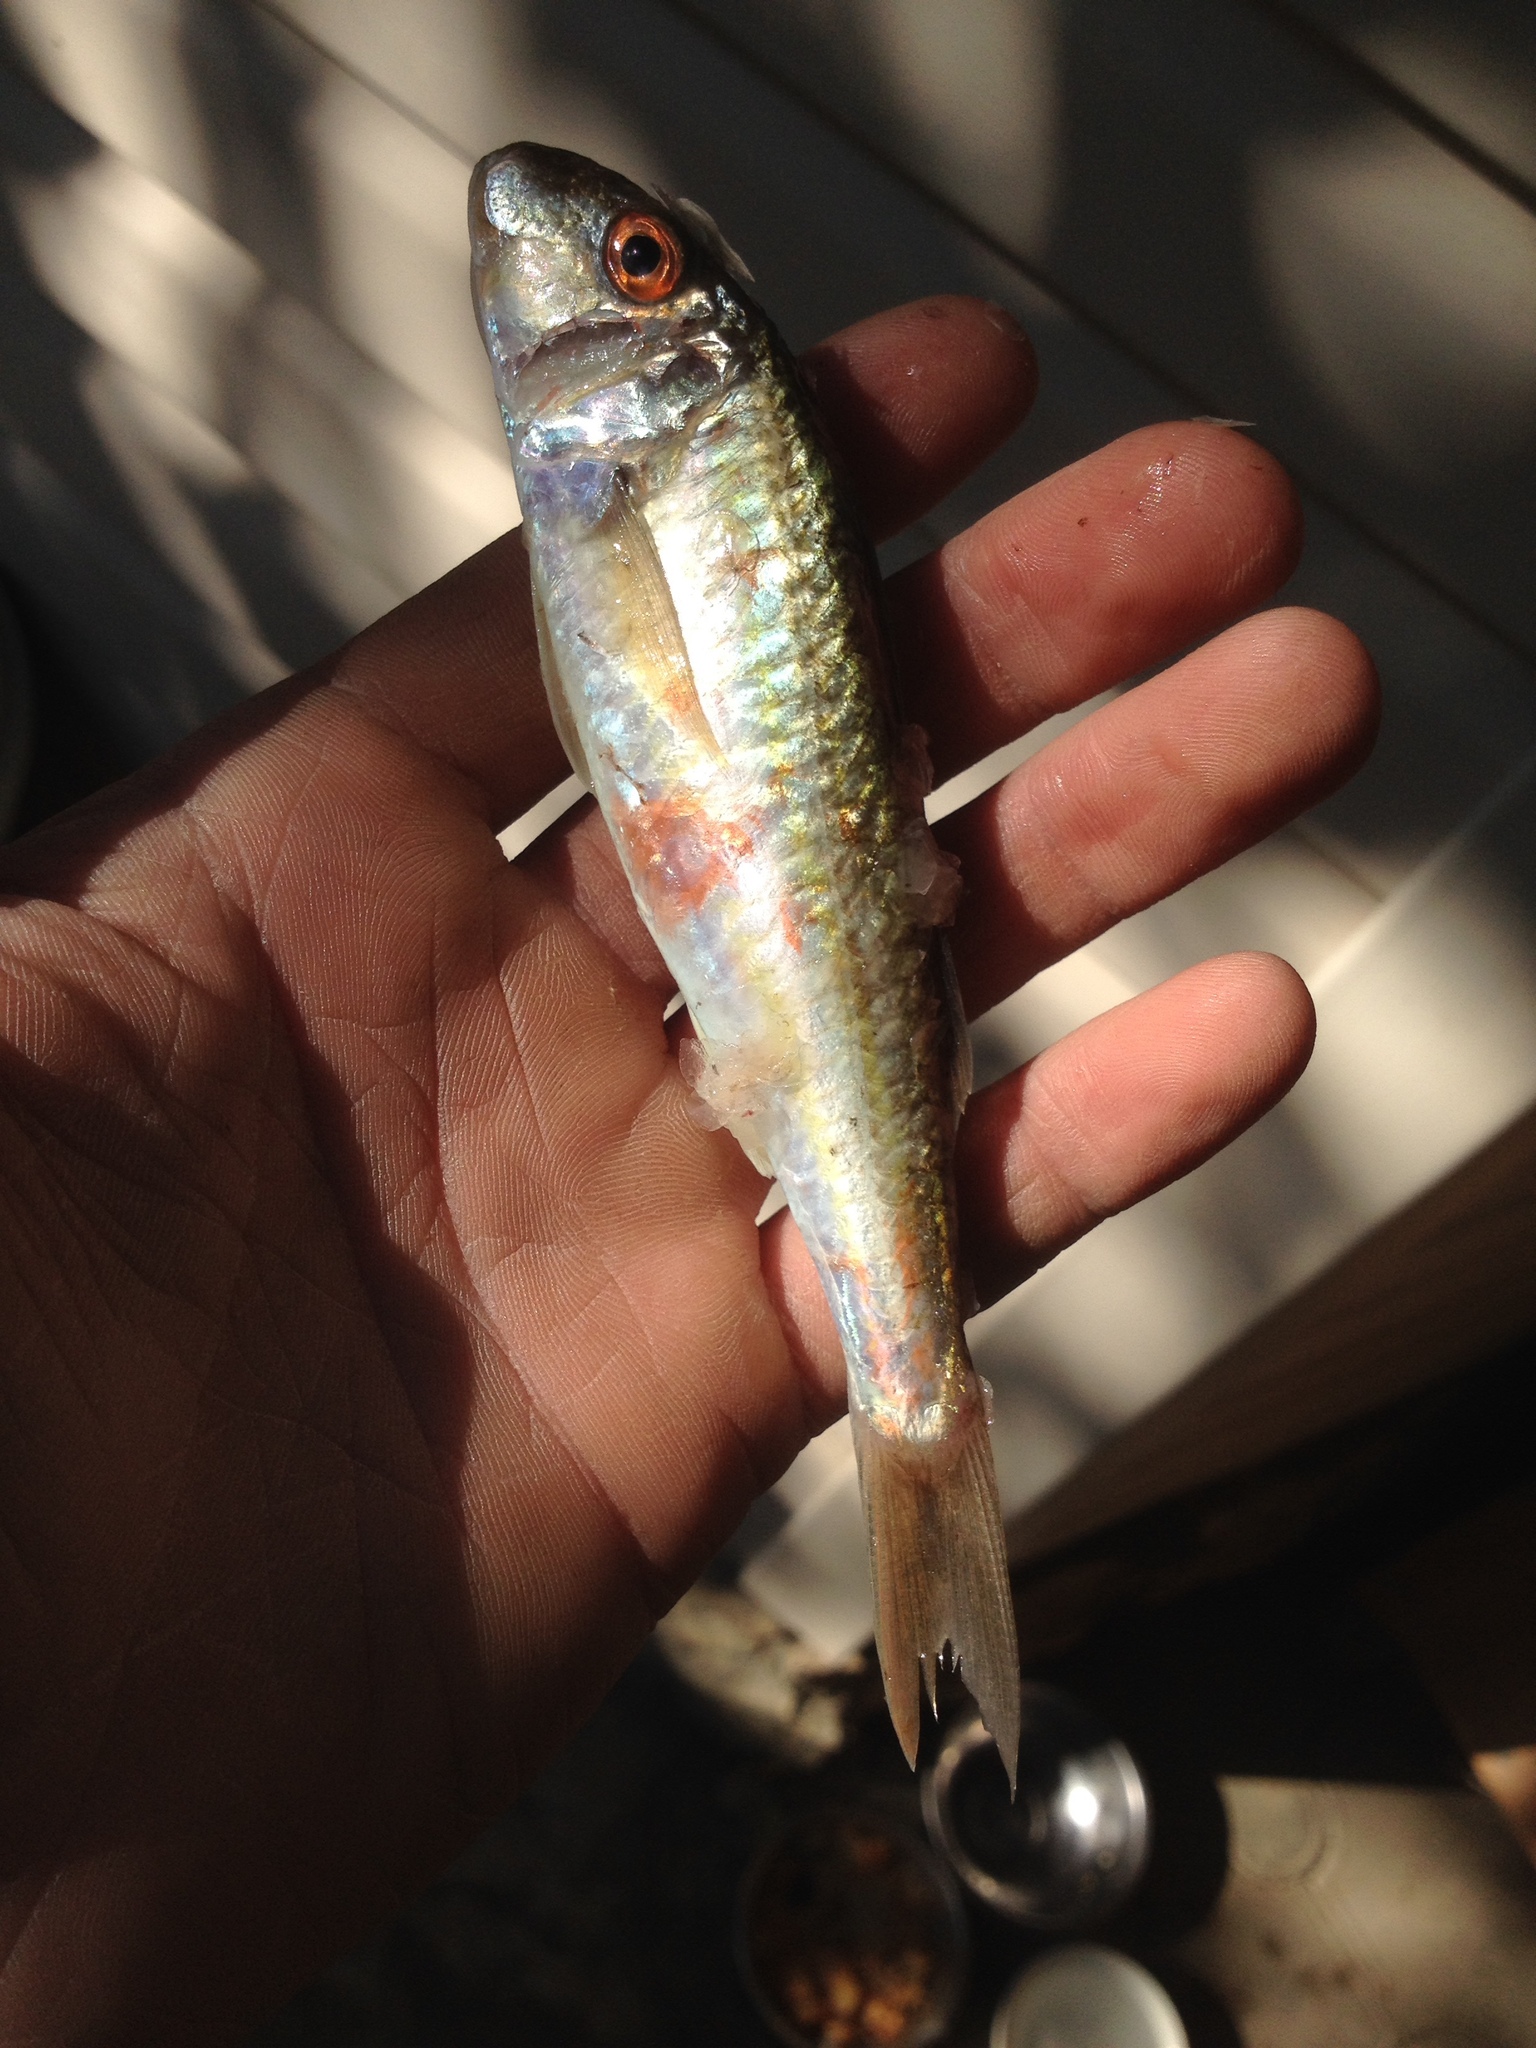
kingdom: Animalia
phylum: Chordata
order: Perciformes
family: Mullidae
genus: Mullus
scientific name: Mullus barbatus
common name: Blunt-snouted mullet
